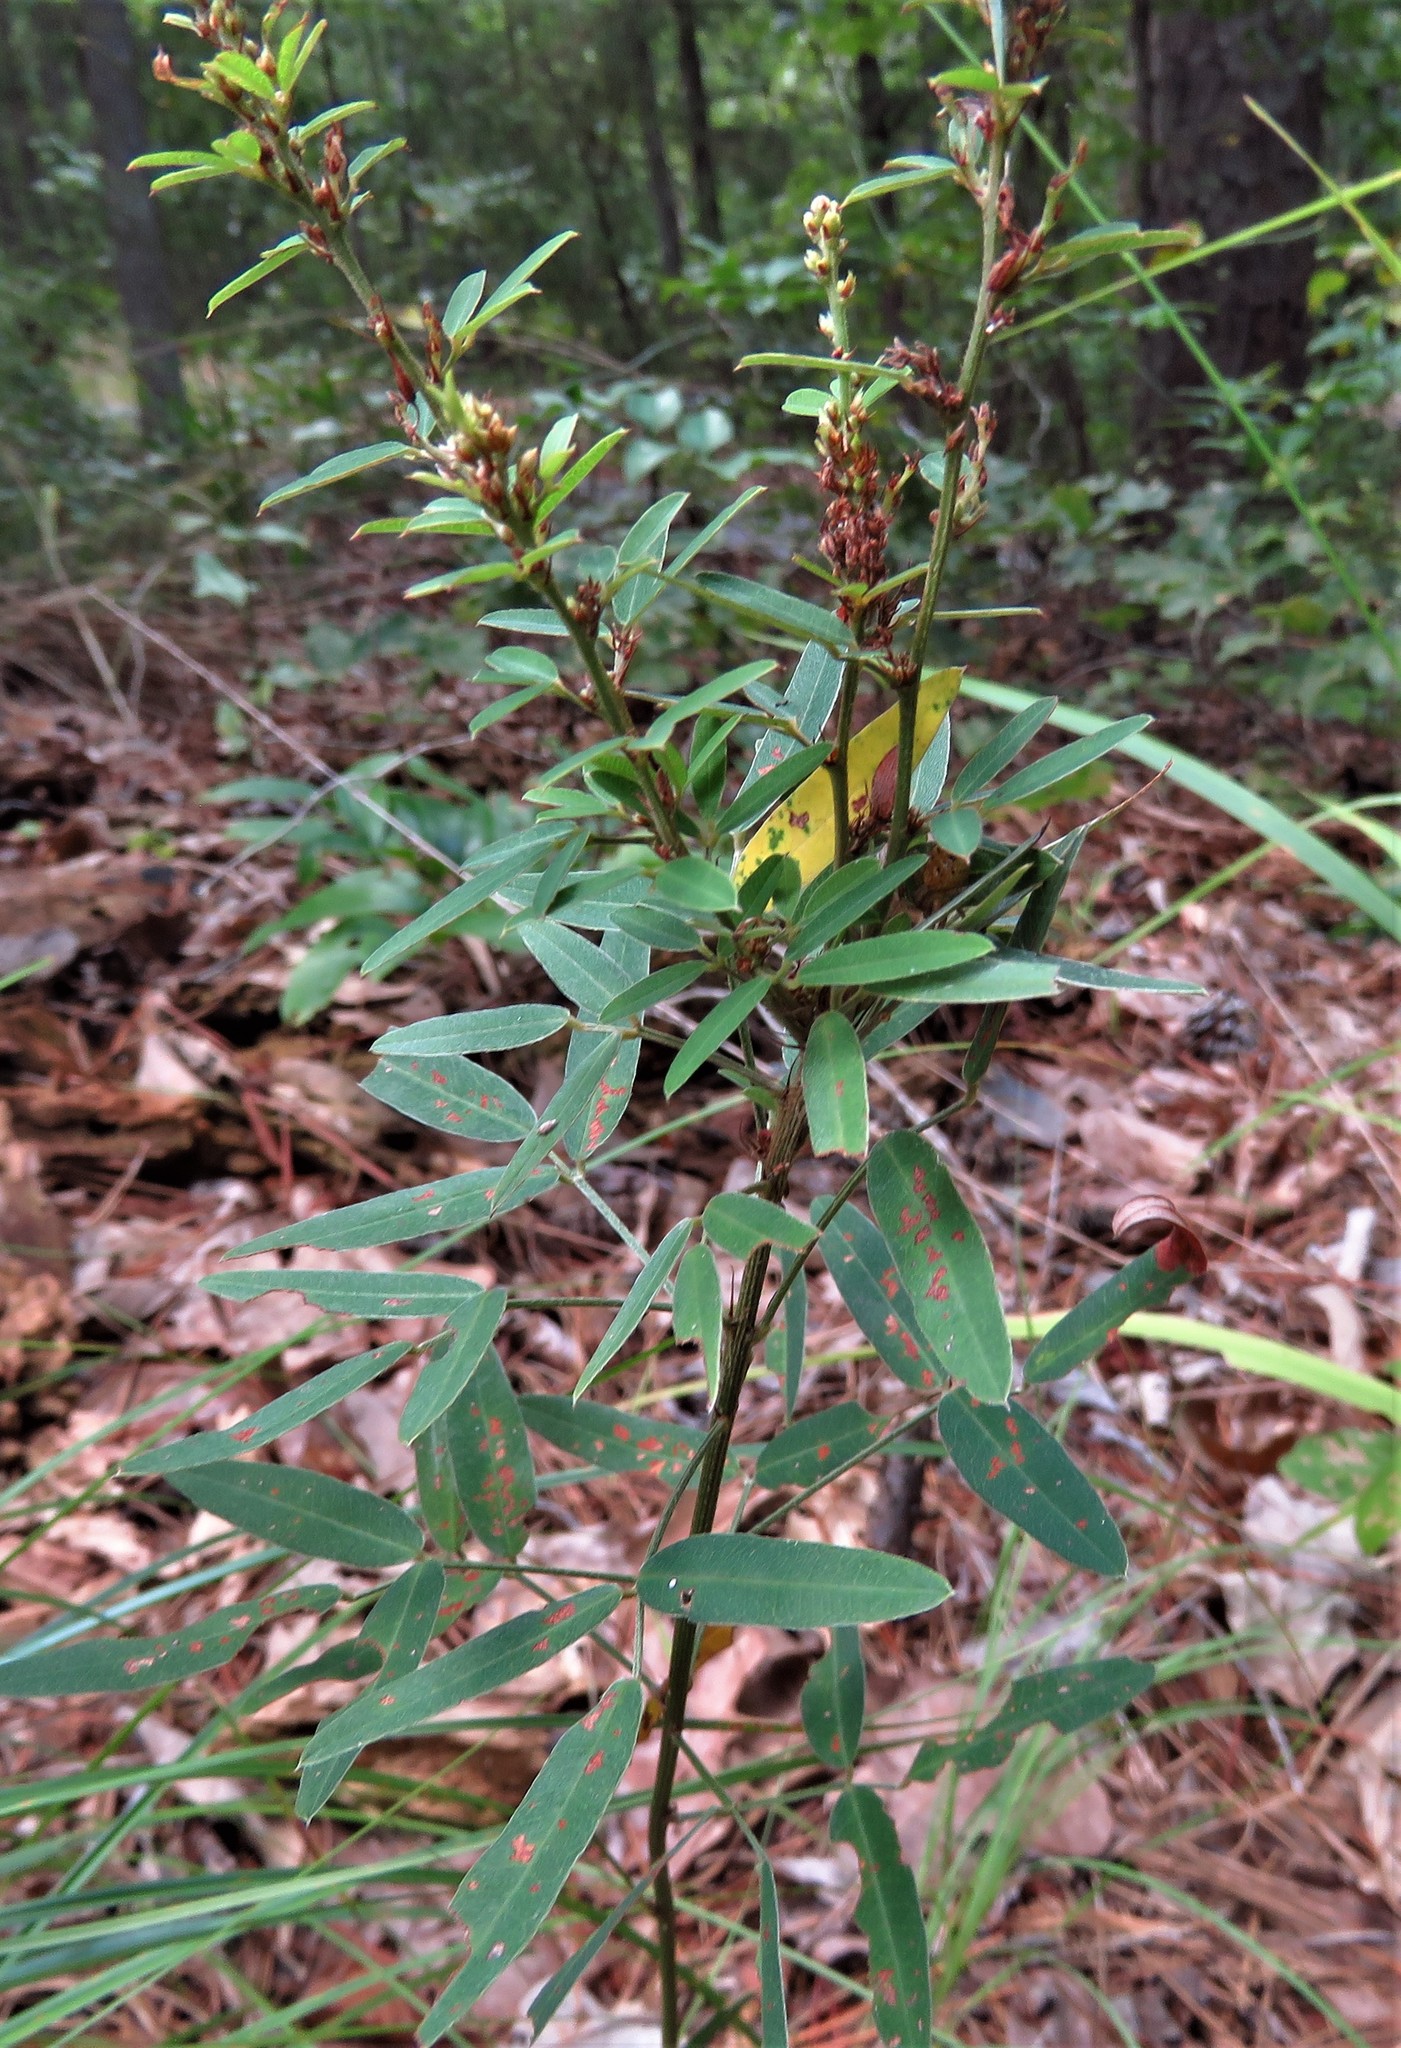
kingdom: Plantae
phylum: Tracheophyta
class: Magnoliopsida
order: Fabales
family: Fabaceae
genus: Lespedeza
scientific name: Lespedeza virginica
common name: Slender bush-clover
